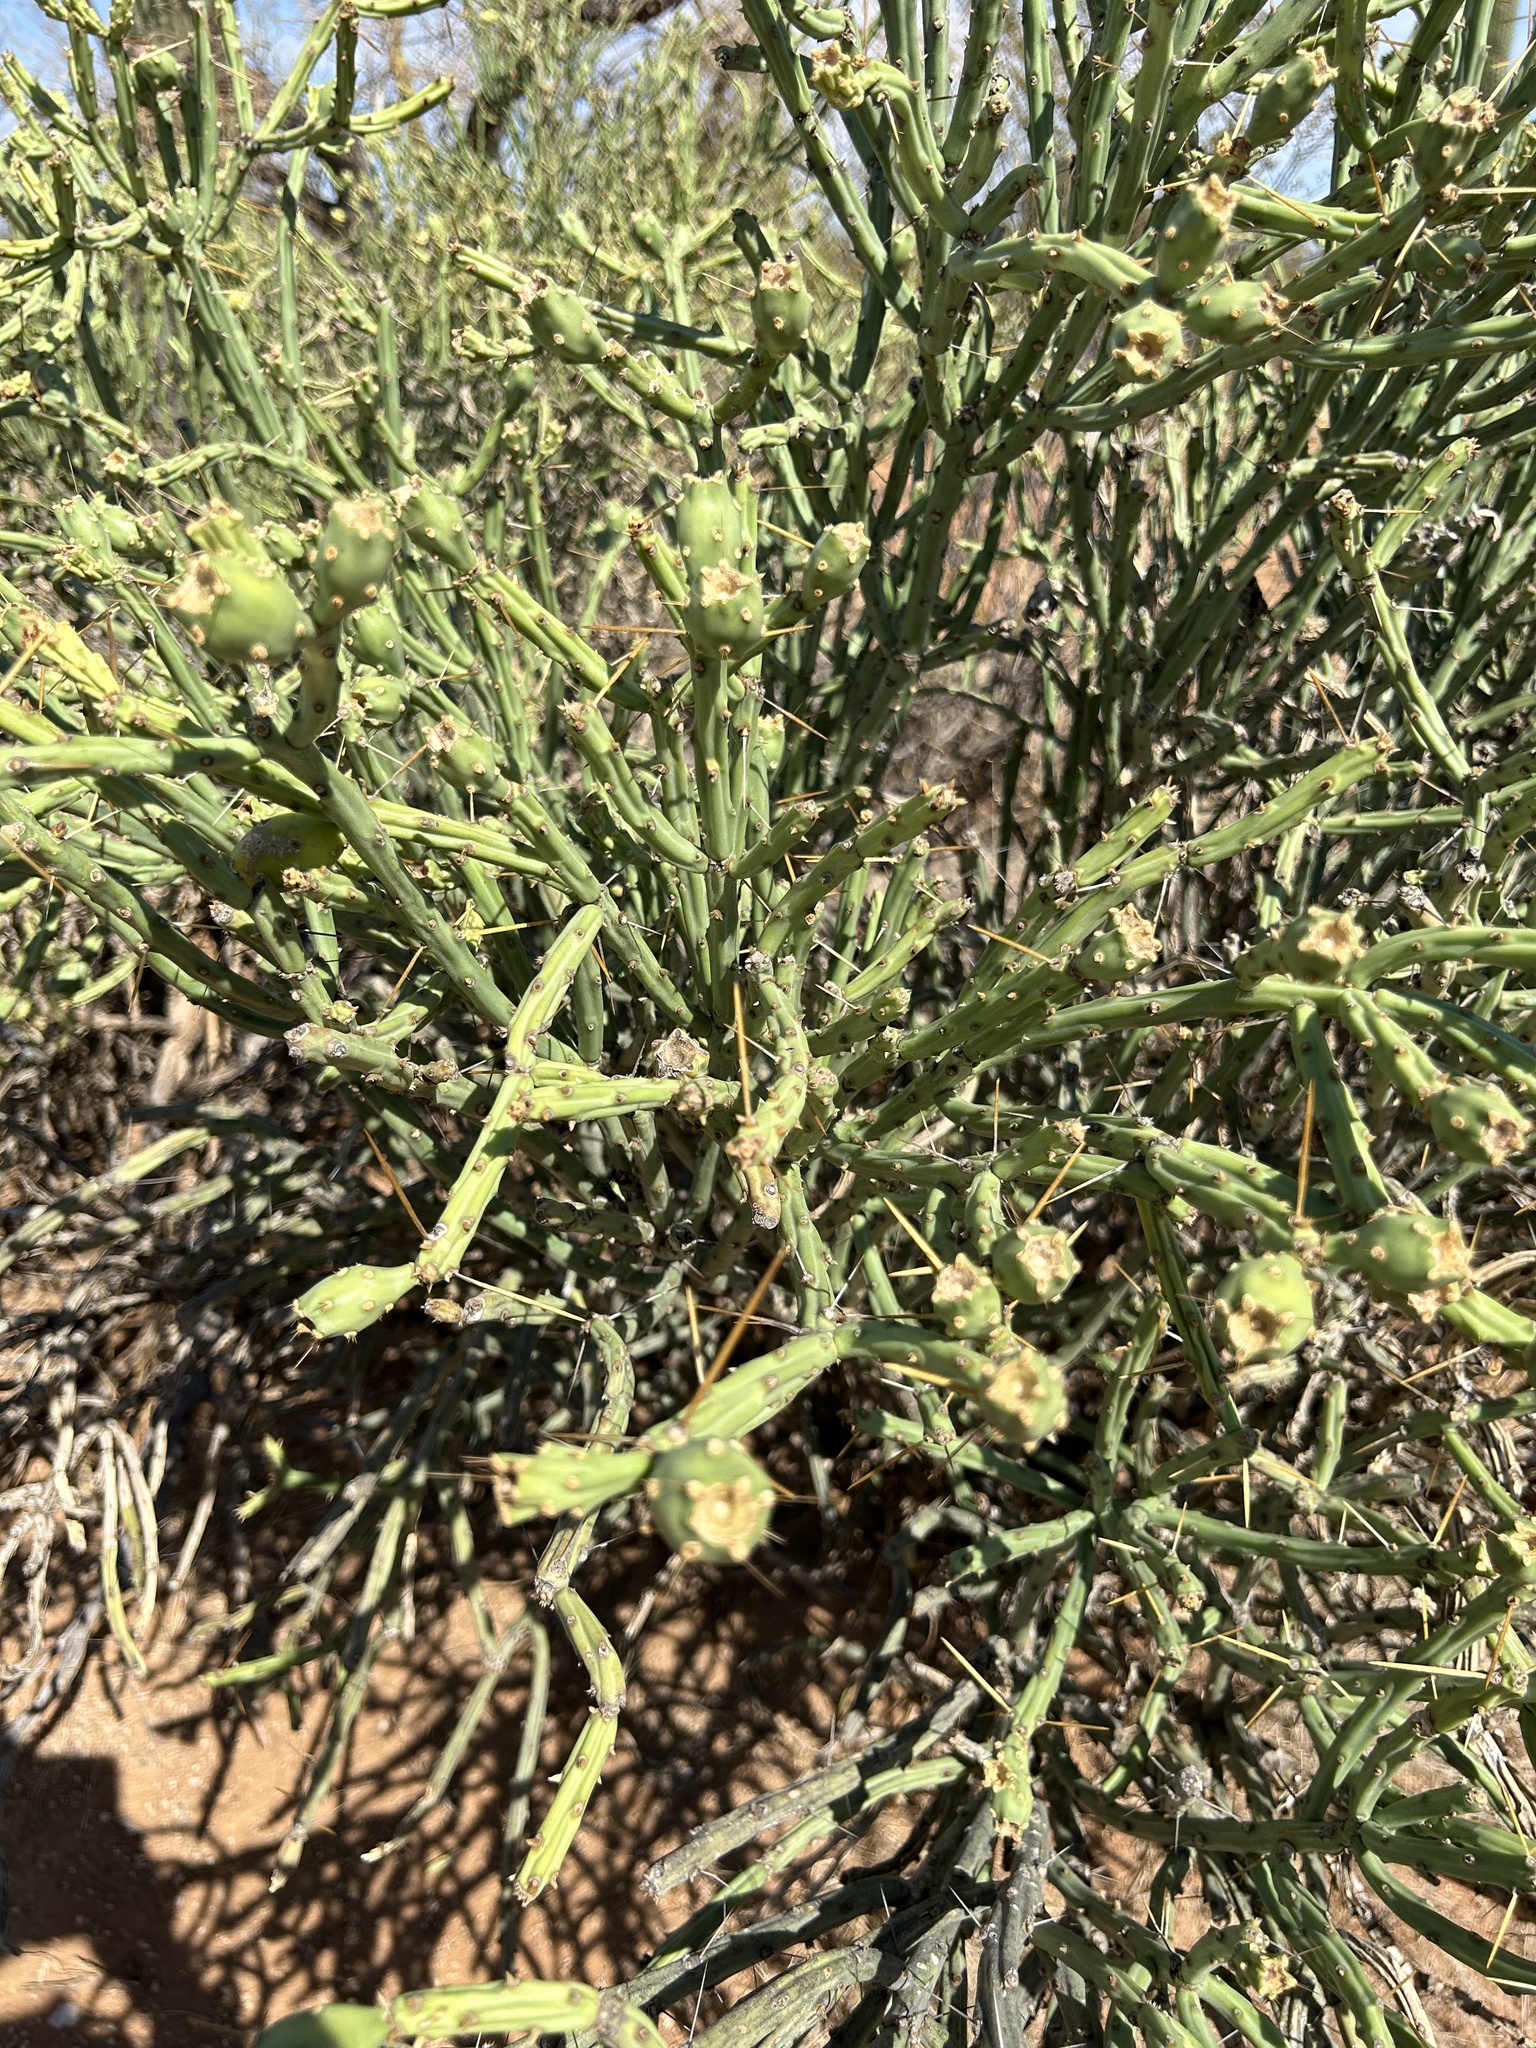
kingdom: Plantae
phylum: Tracheophyta
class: Magnoliopsida
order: Caryophyllales
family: Cactaceae
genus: Cylindropuntia
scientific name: Cylindropuntia arbuscula
